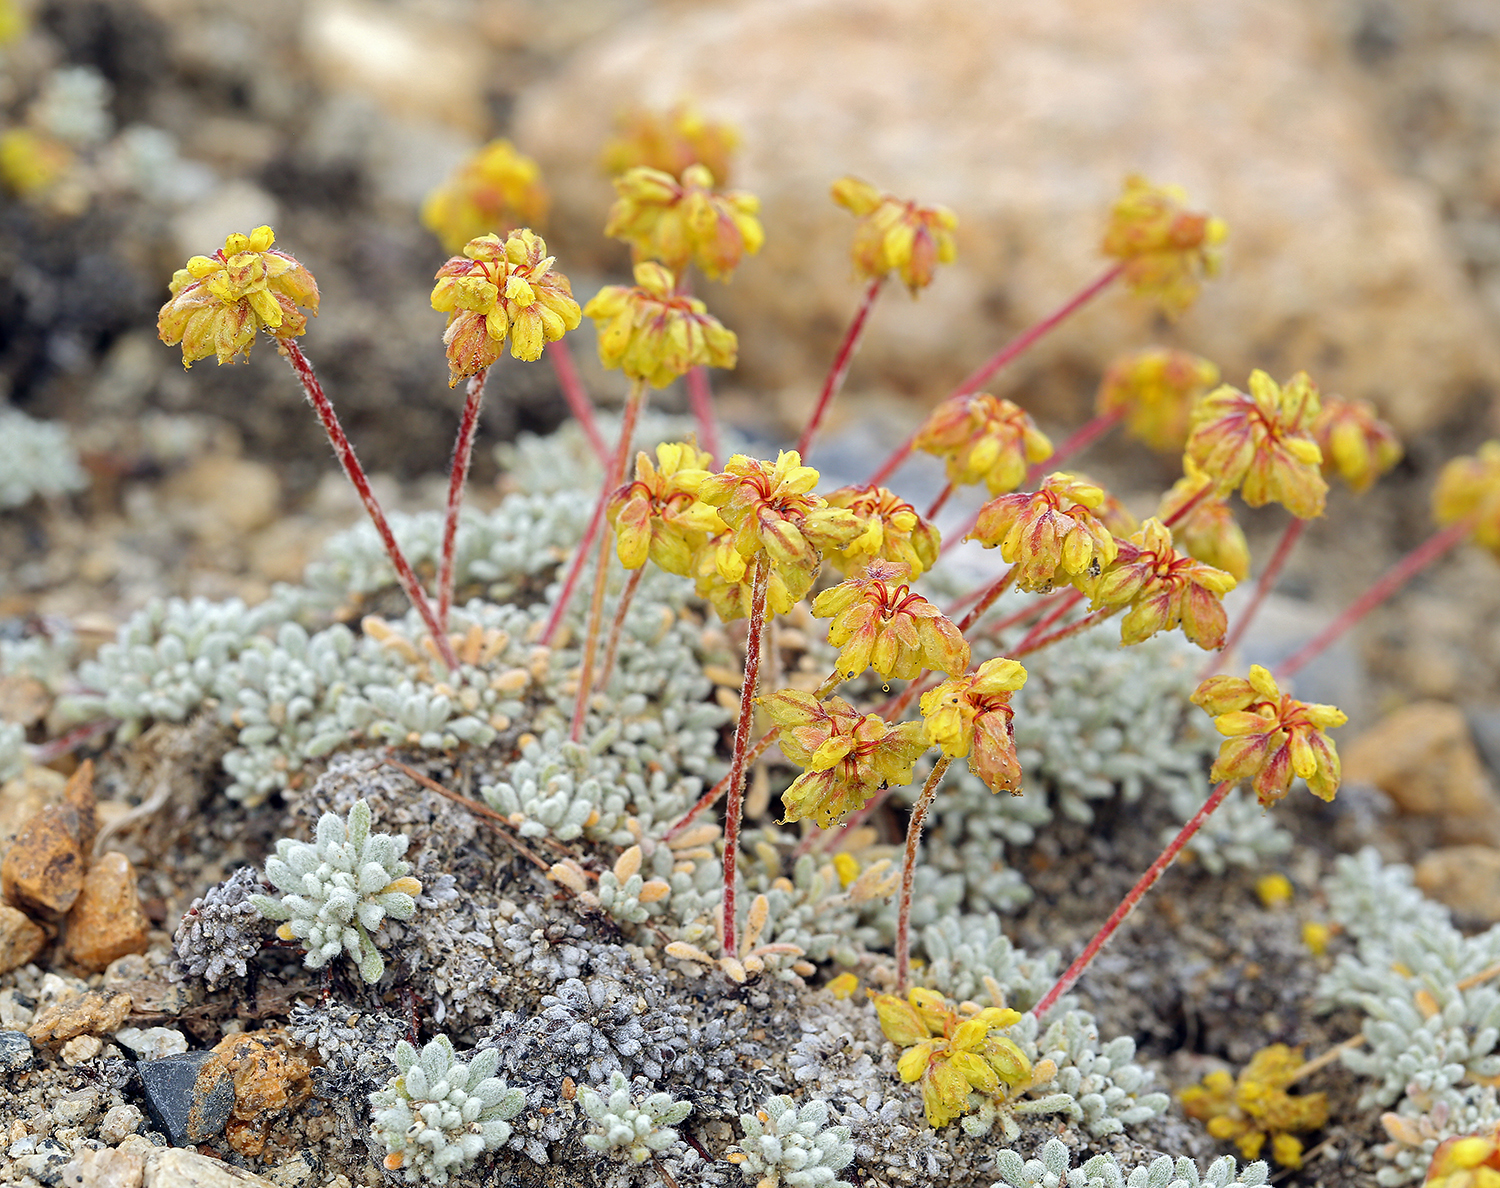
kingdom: Plantae
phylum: Tracheophyta
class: Magnoliopsida
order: Caryophyllales
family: Polygonaceae
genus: Eriogonum
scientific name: Eriogonum caespitosum
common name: Matted wild buckwheat
